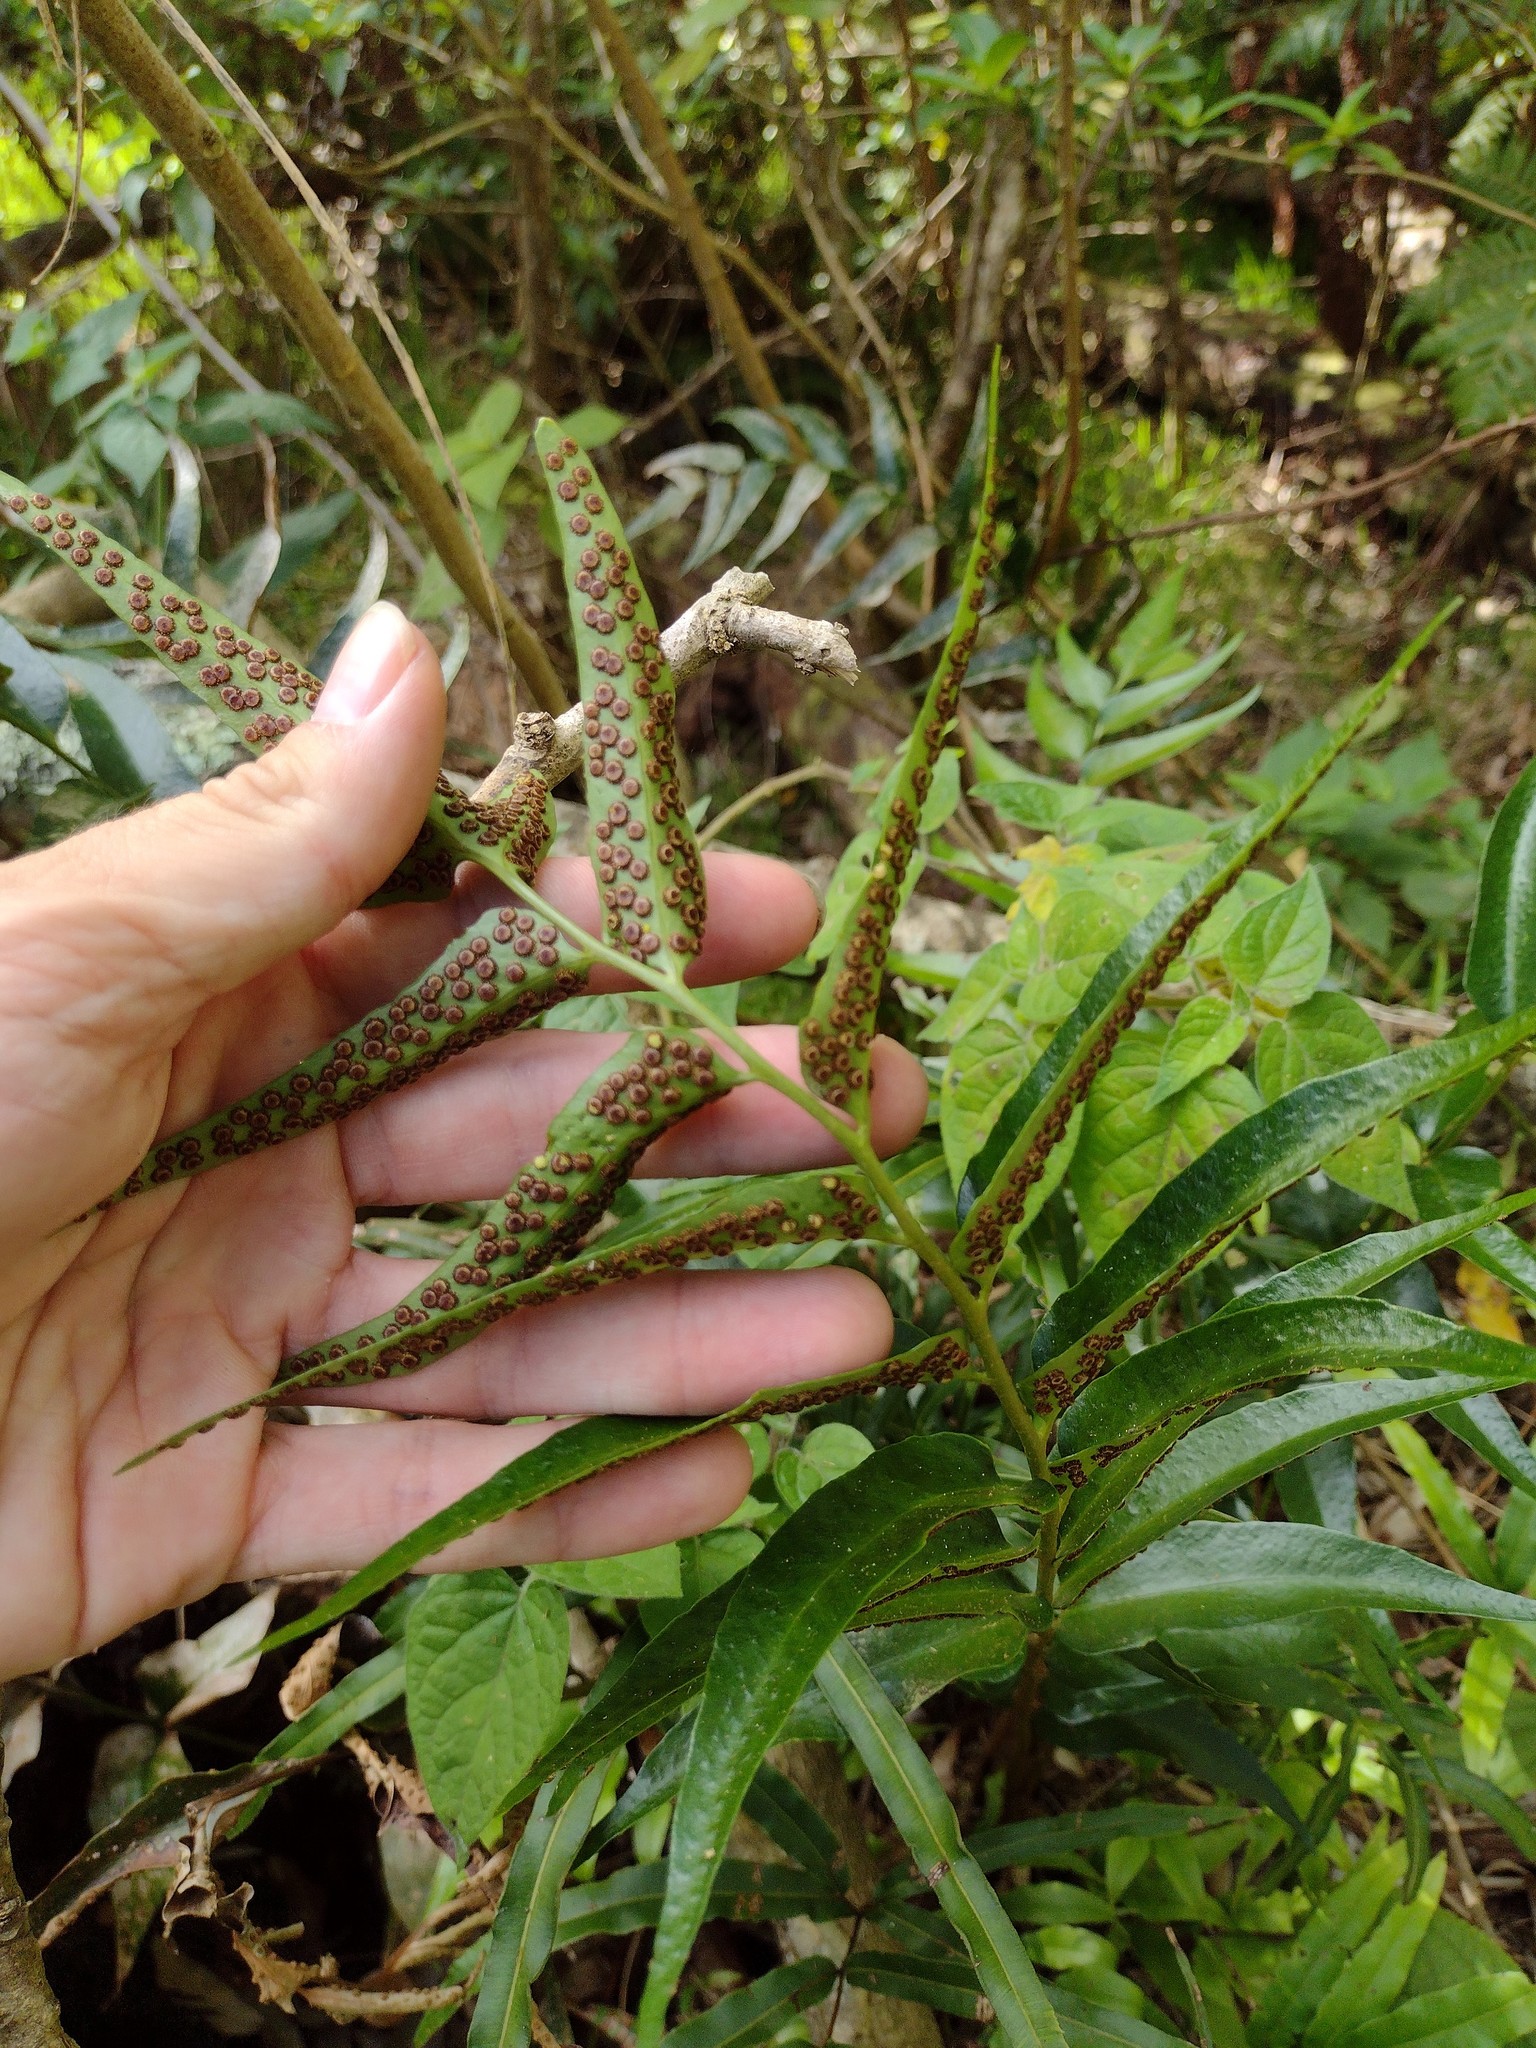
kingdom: Plantae
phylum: Tracheophyta
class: Polypodiopsida
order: Polypodiales
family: Dryopteridaceae
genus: Cyrtomium
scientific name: Cyrtomium falcatum
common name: House holly-fern
